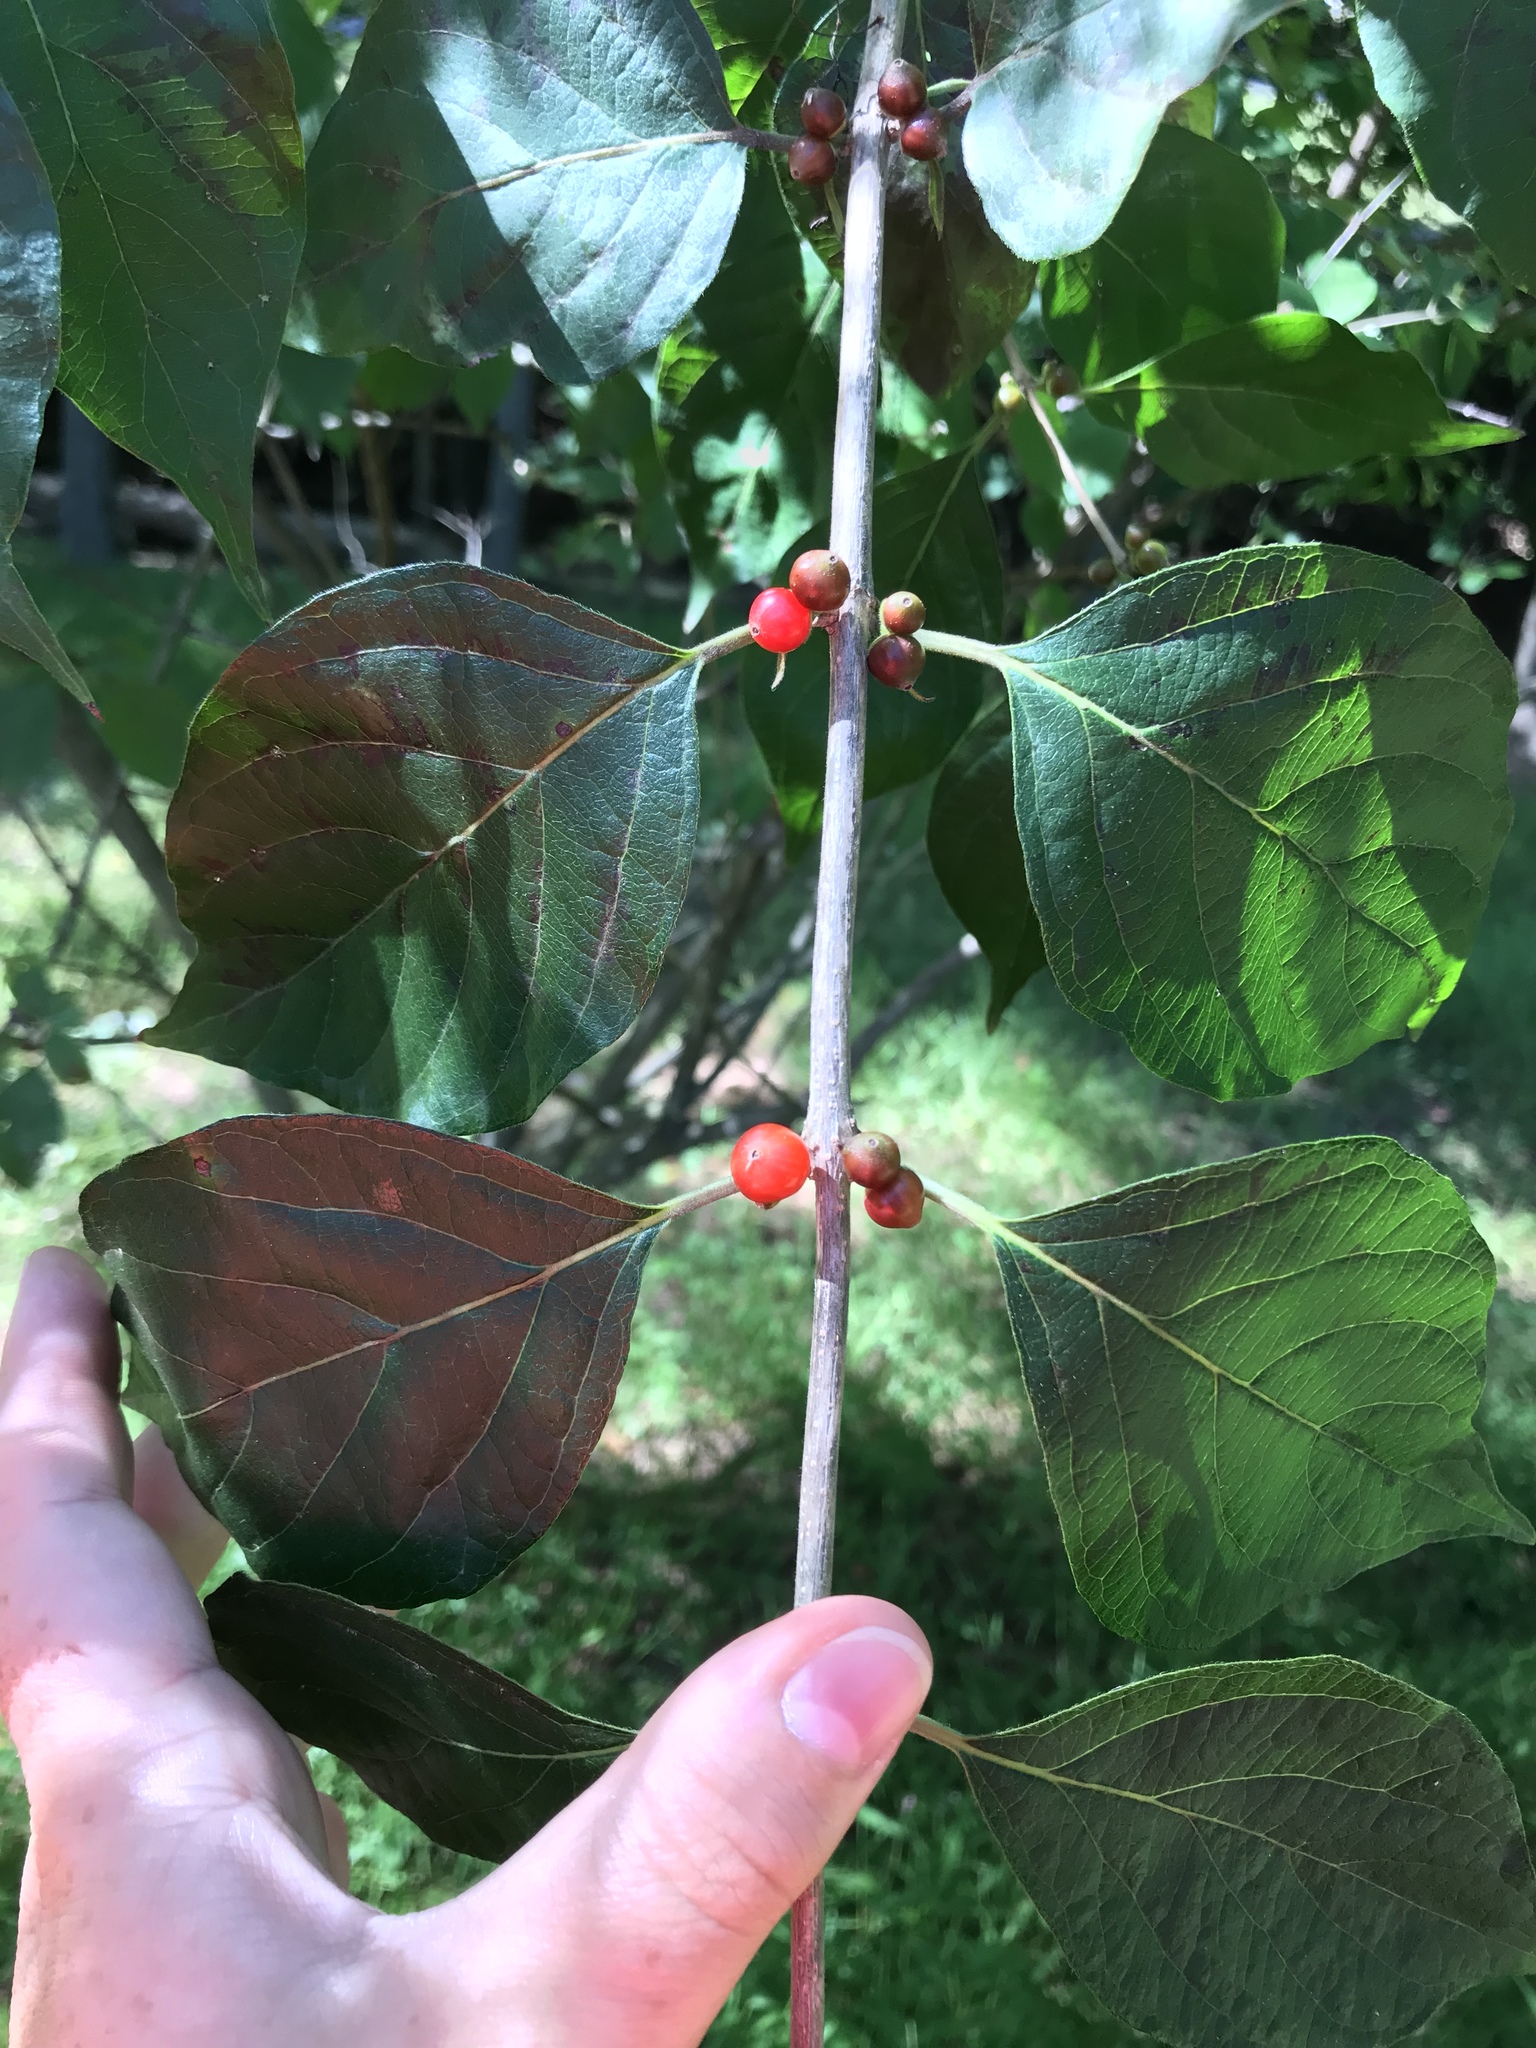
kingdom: Plantae
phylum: Tracheophyta
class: Magnoliopsida
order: Dipsacales
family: Caprifoliaceae
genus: Lonicera
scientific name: Lonicera maackii
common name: Amur honeysuckle
